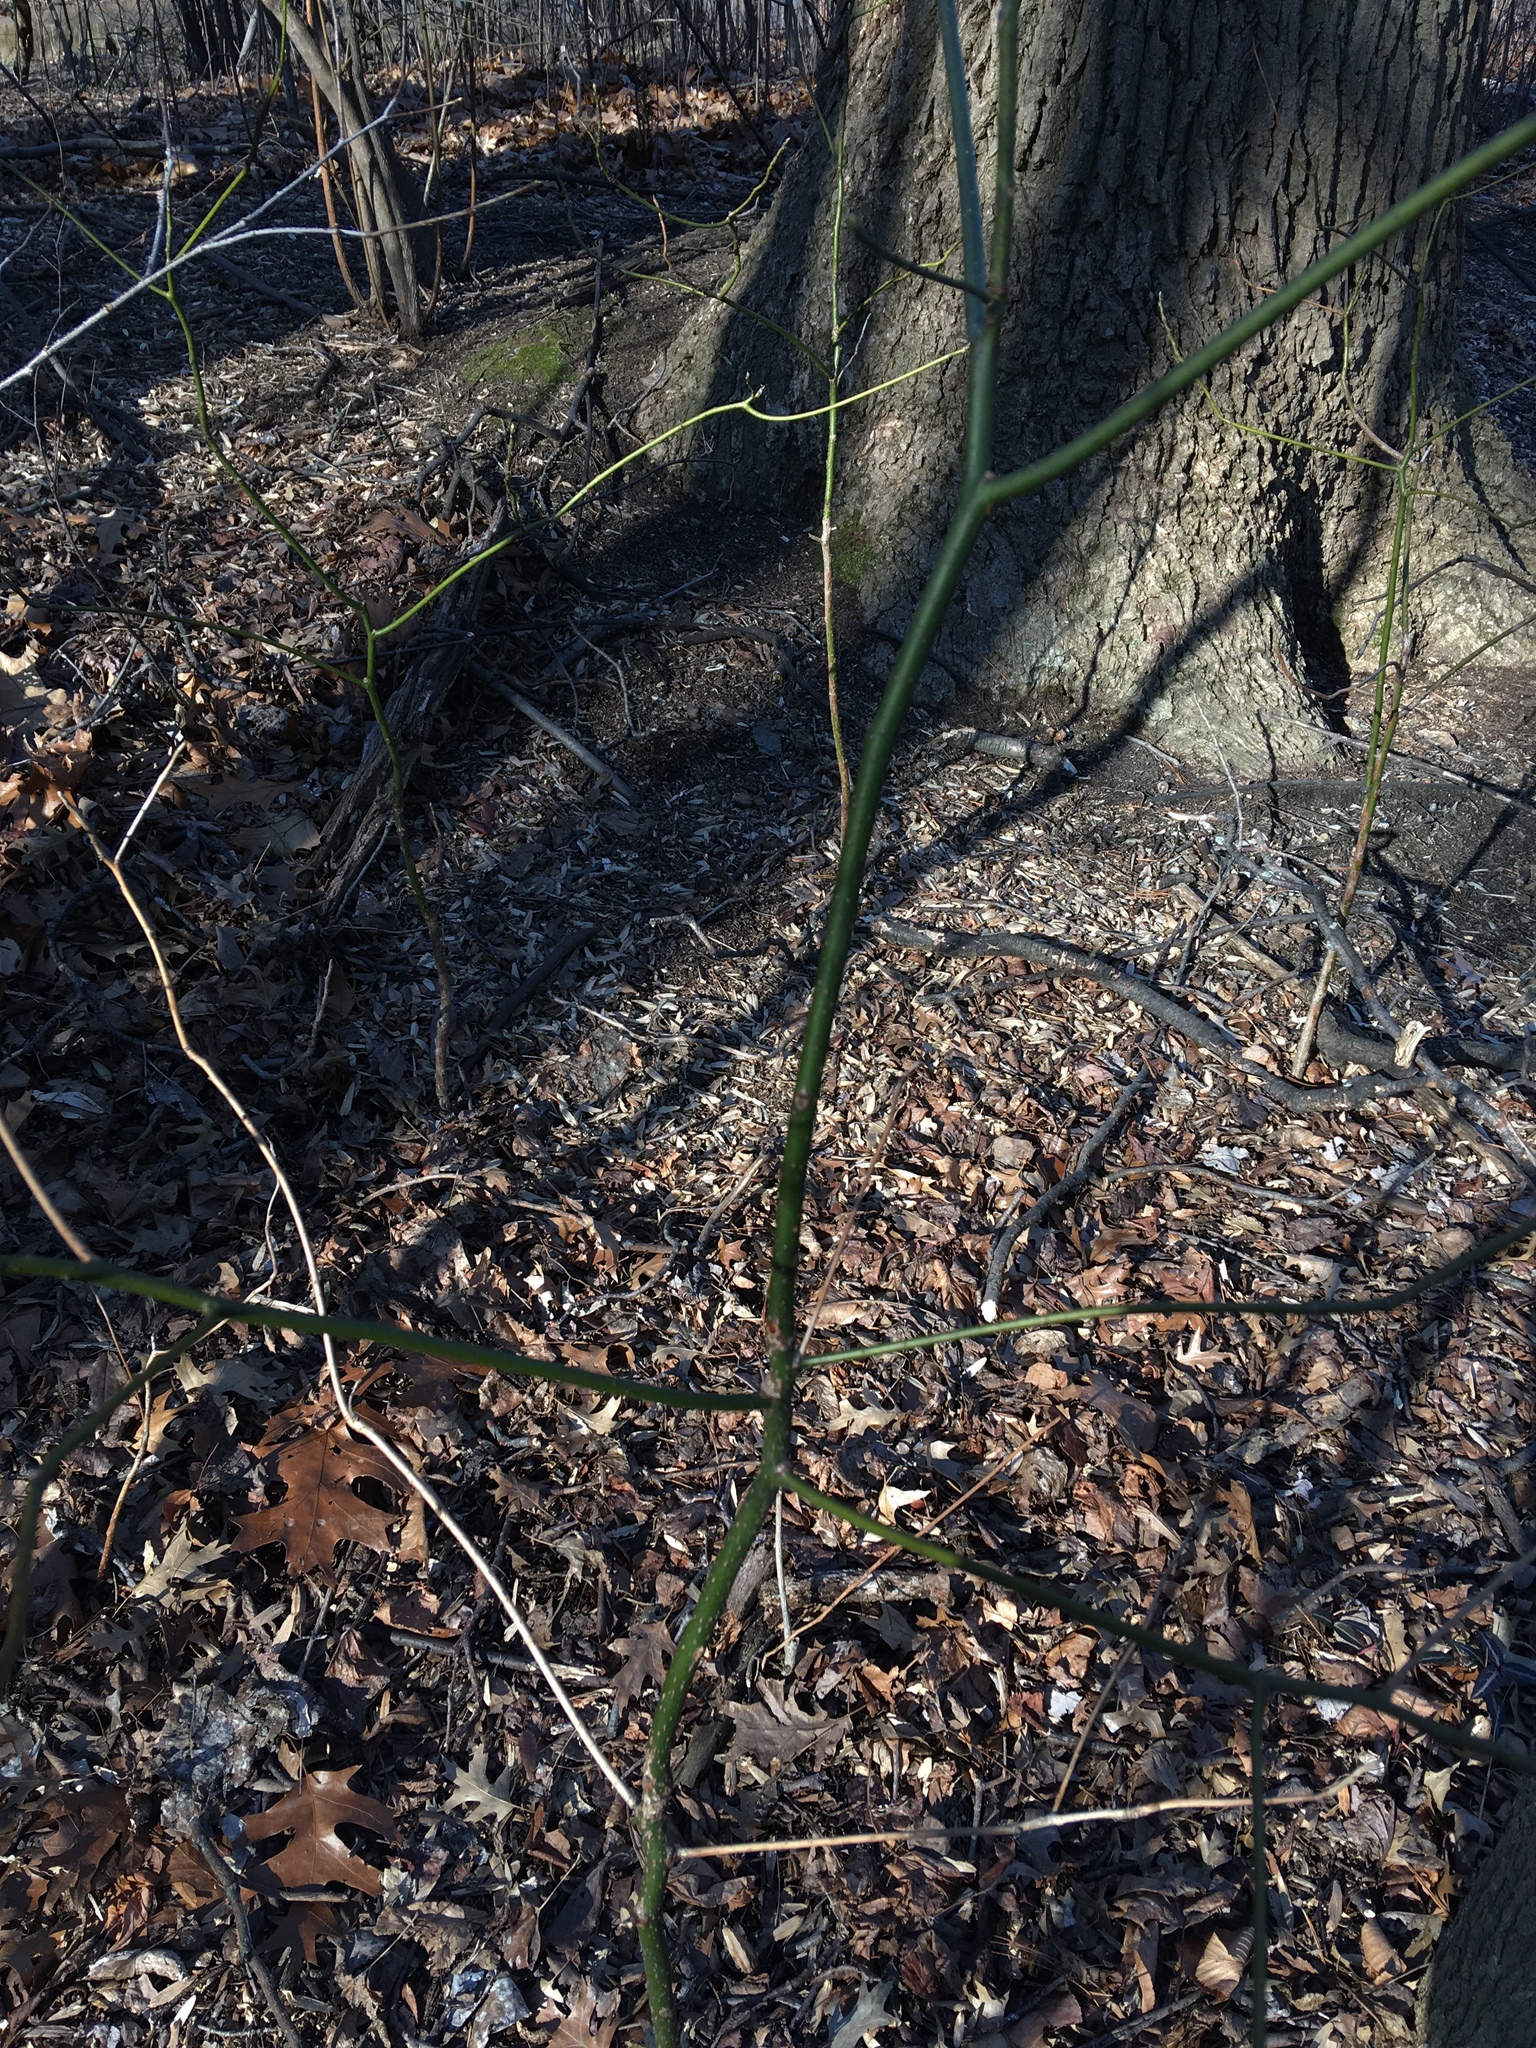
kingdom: Plantae
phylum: Tracheophyta
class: Magnoliopsida
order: Laurales
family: Lauraceae
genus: Sassafras
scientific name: Sassafras albidum
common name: Sassafras
